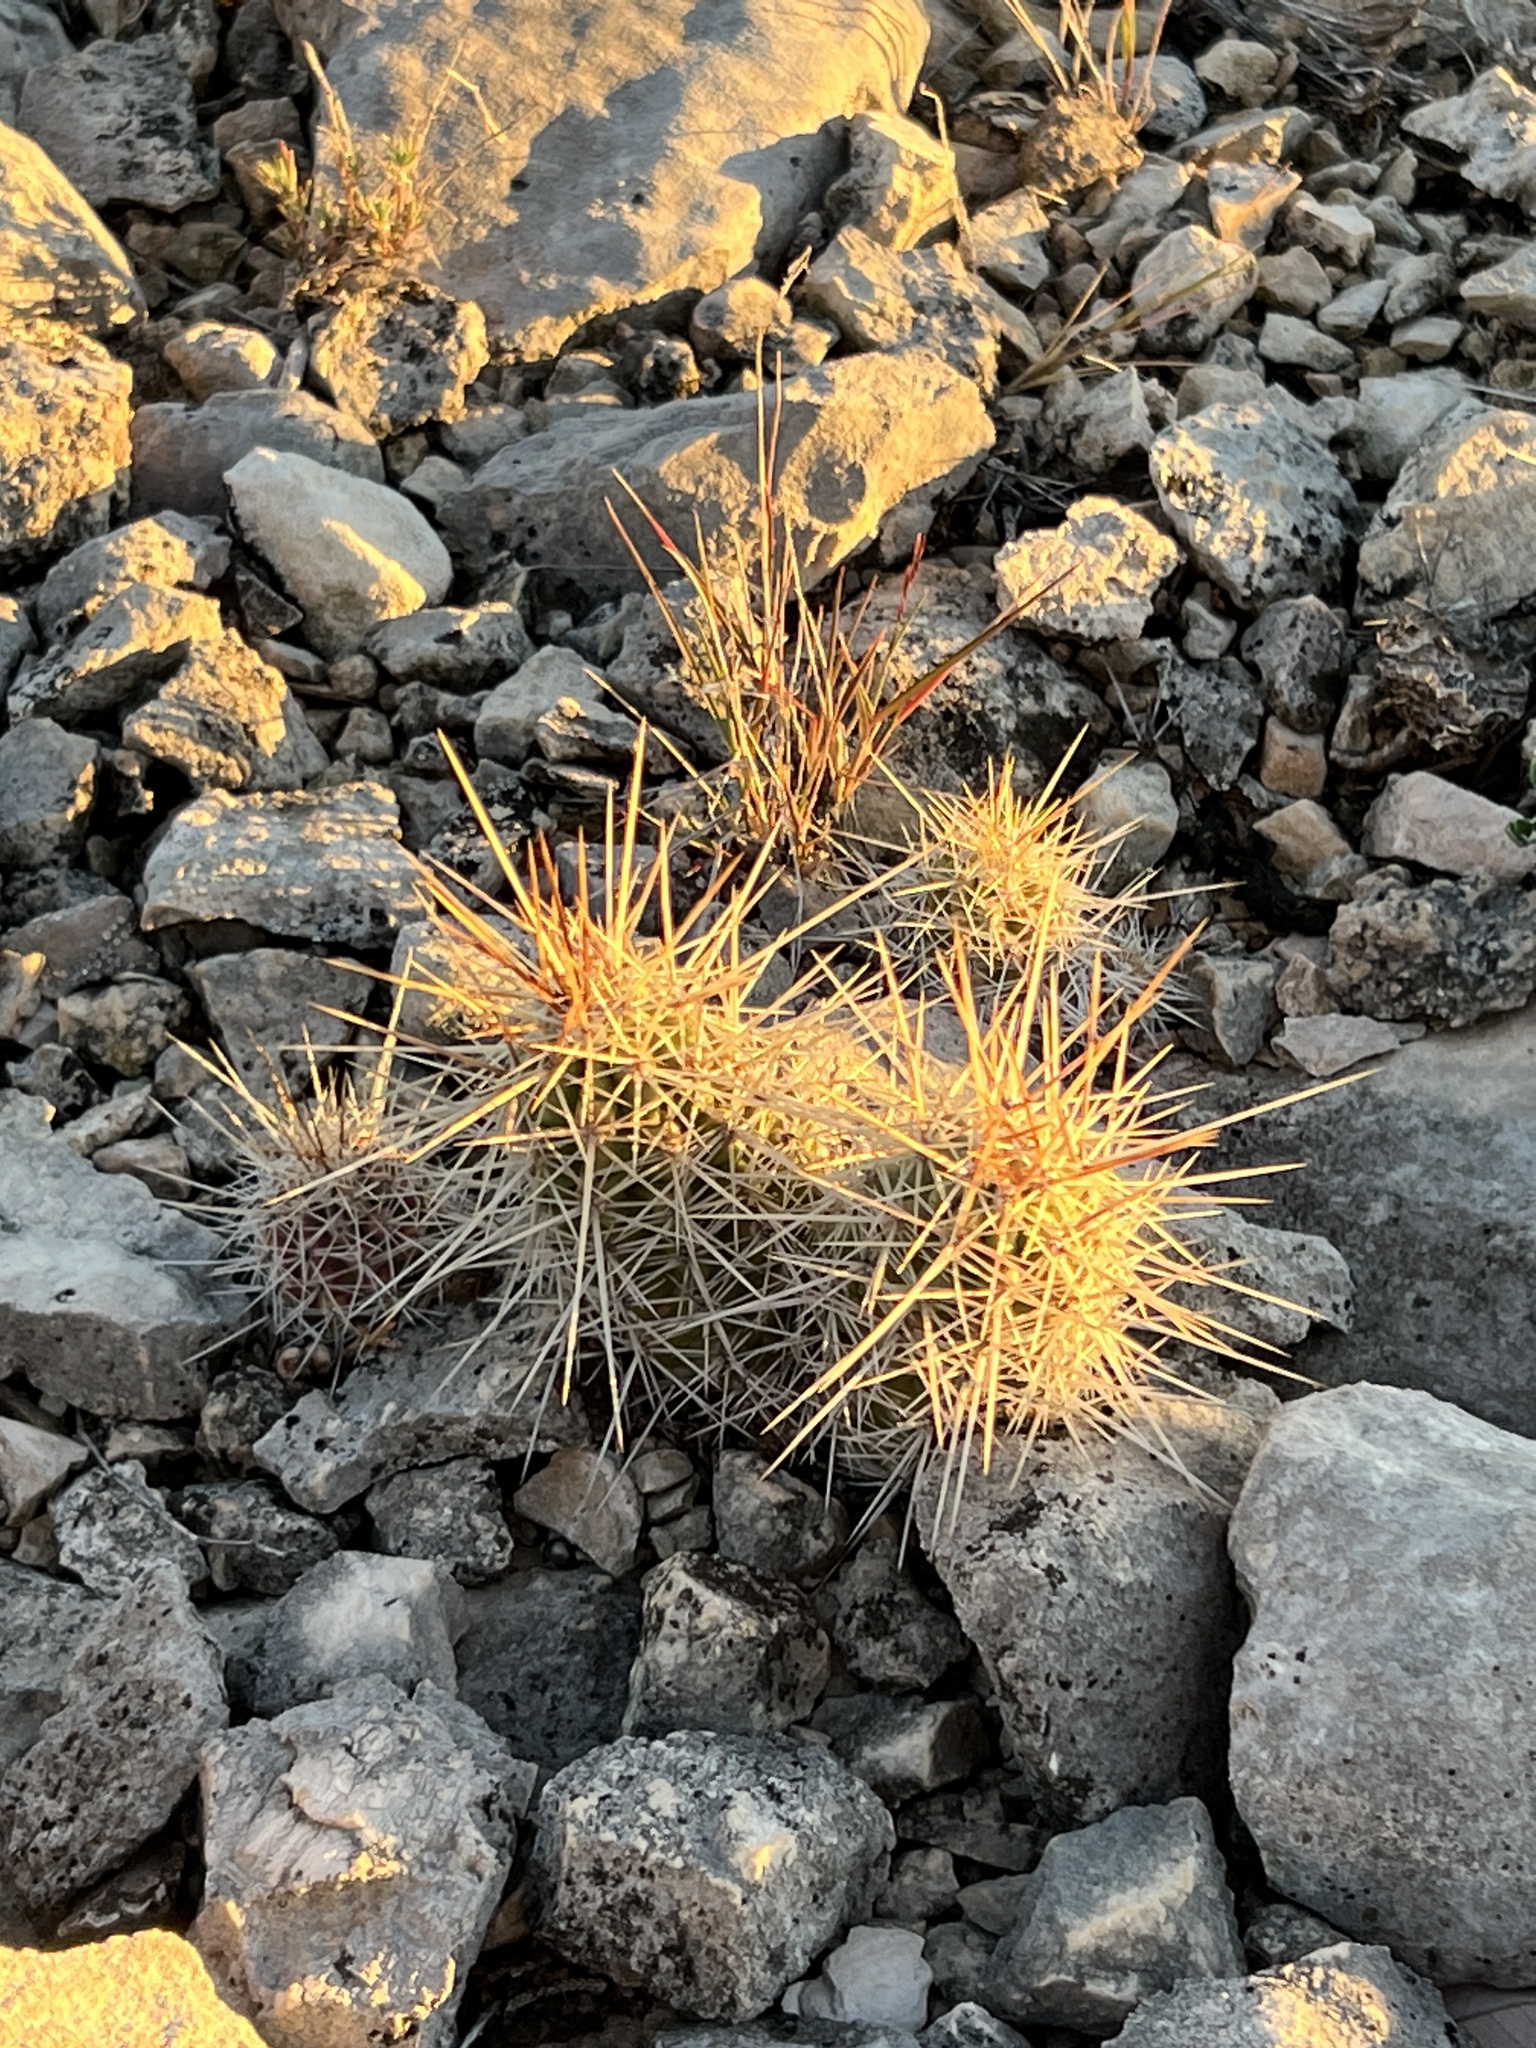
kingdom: Plantae
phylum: Tracheophyta
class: Magnoliopsida
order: Caryophyllales
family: Cactaceae
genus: Echinocereus
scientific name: Echinocereus enneacanthus
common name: Pitaya
